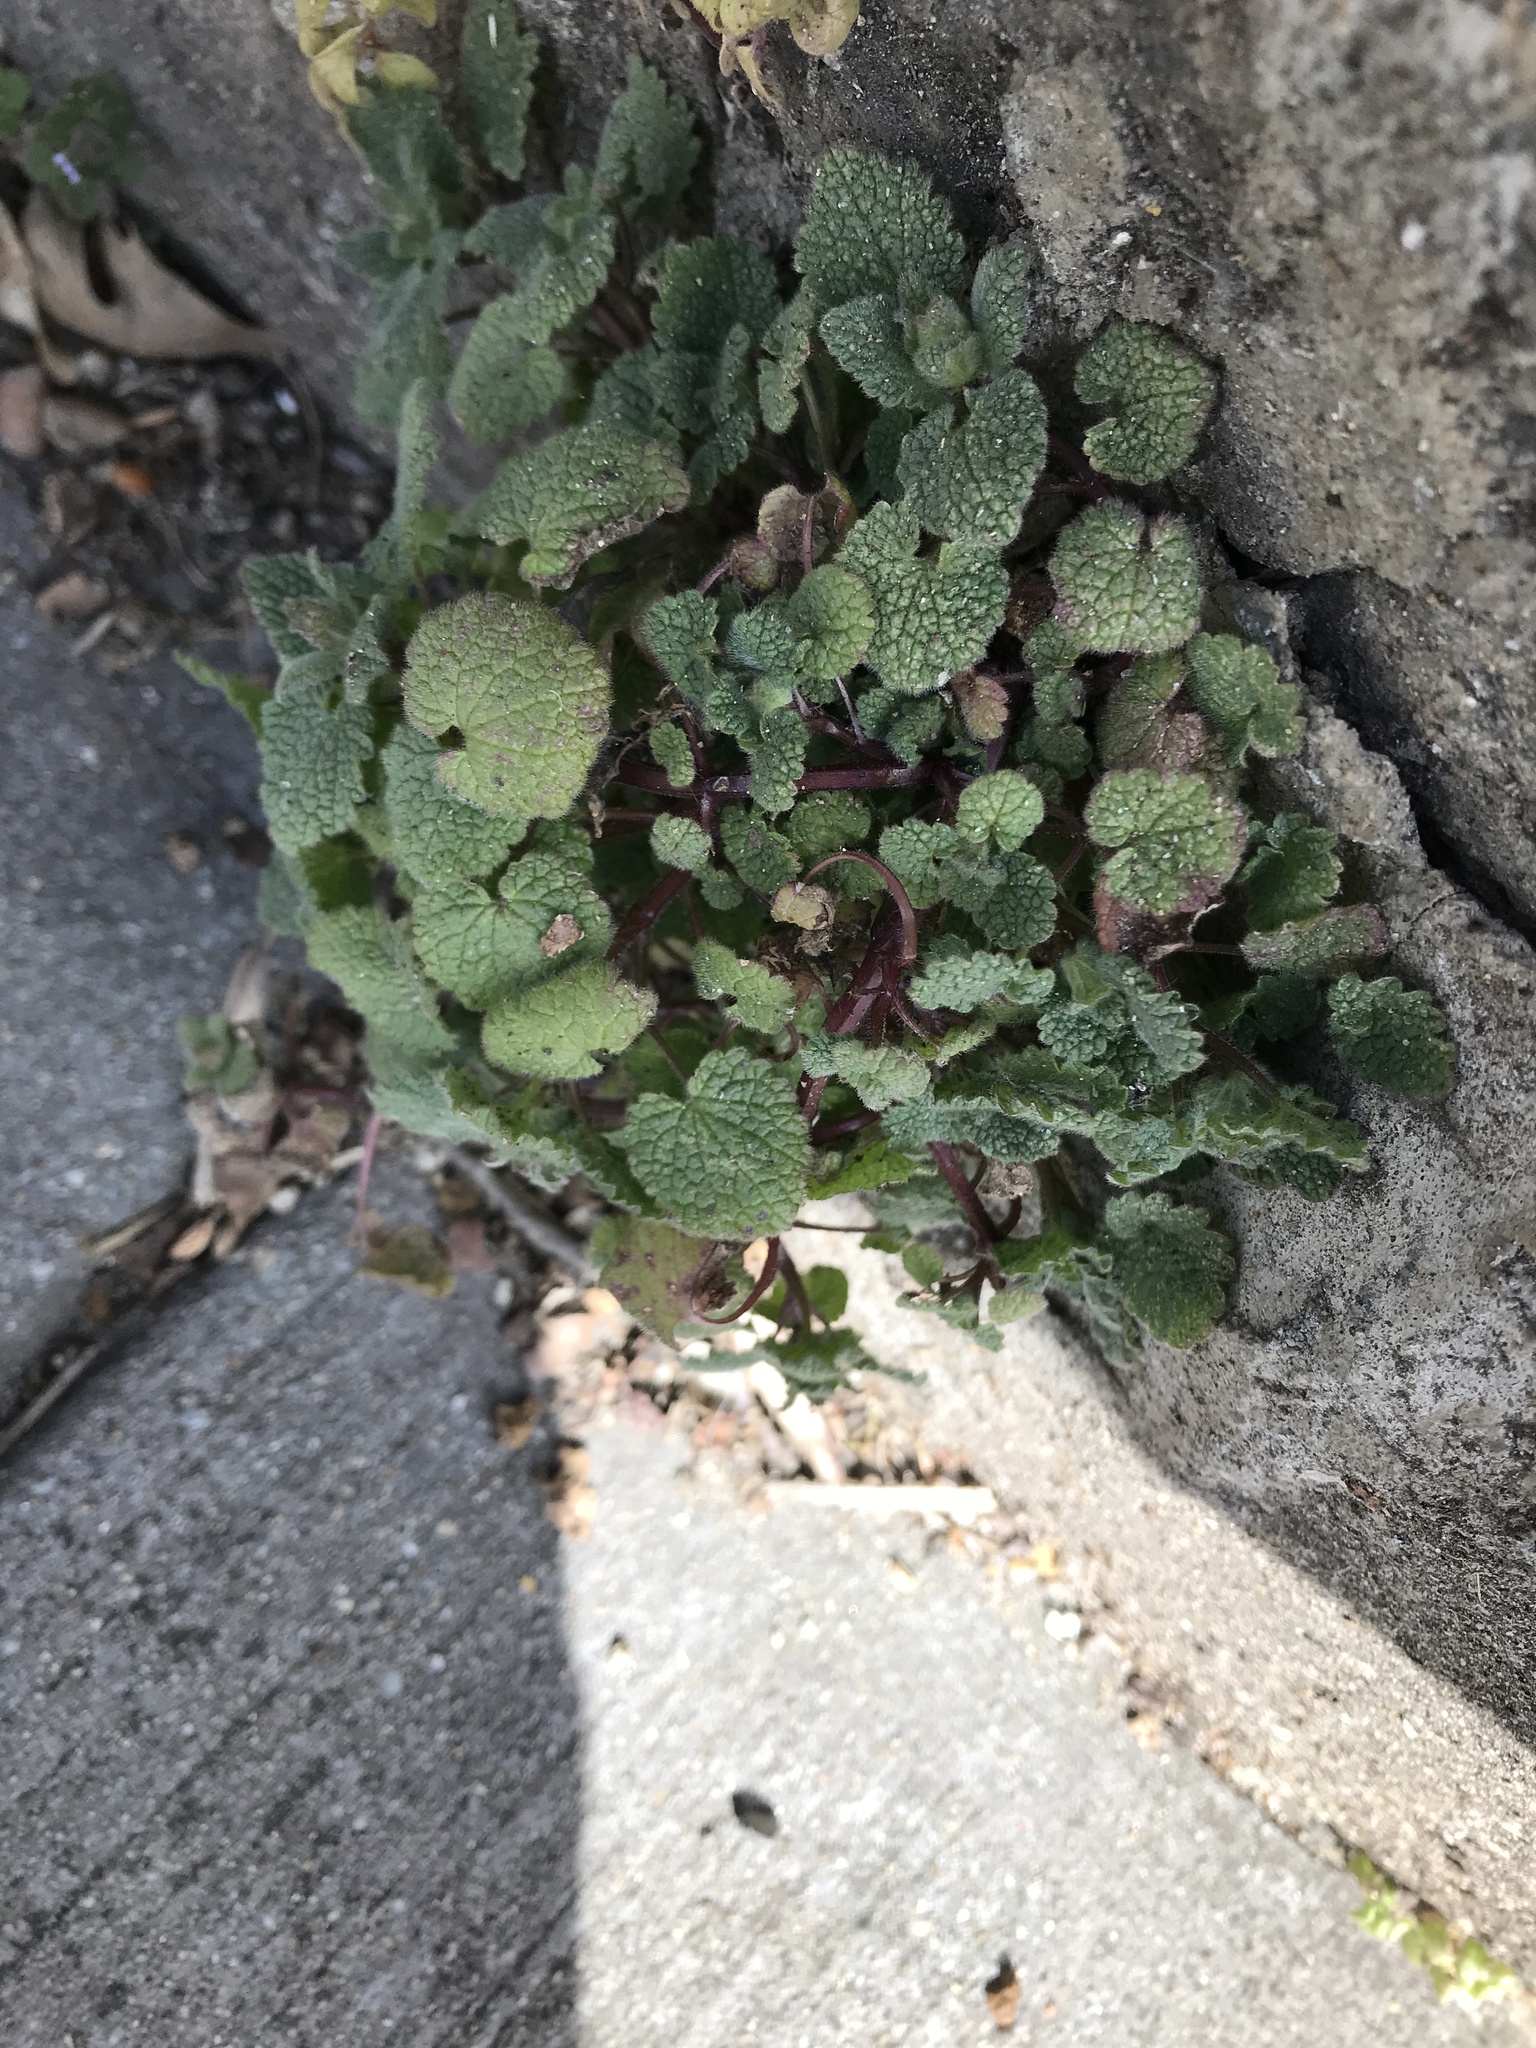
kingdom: Plantae
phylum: Tracheophyta
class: Magnoliopsida
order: Lamiales
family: Lamiaceae
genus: Lamium
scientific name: Lamium purpureum
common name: Red dead-nettle
